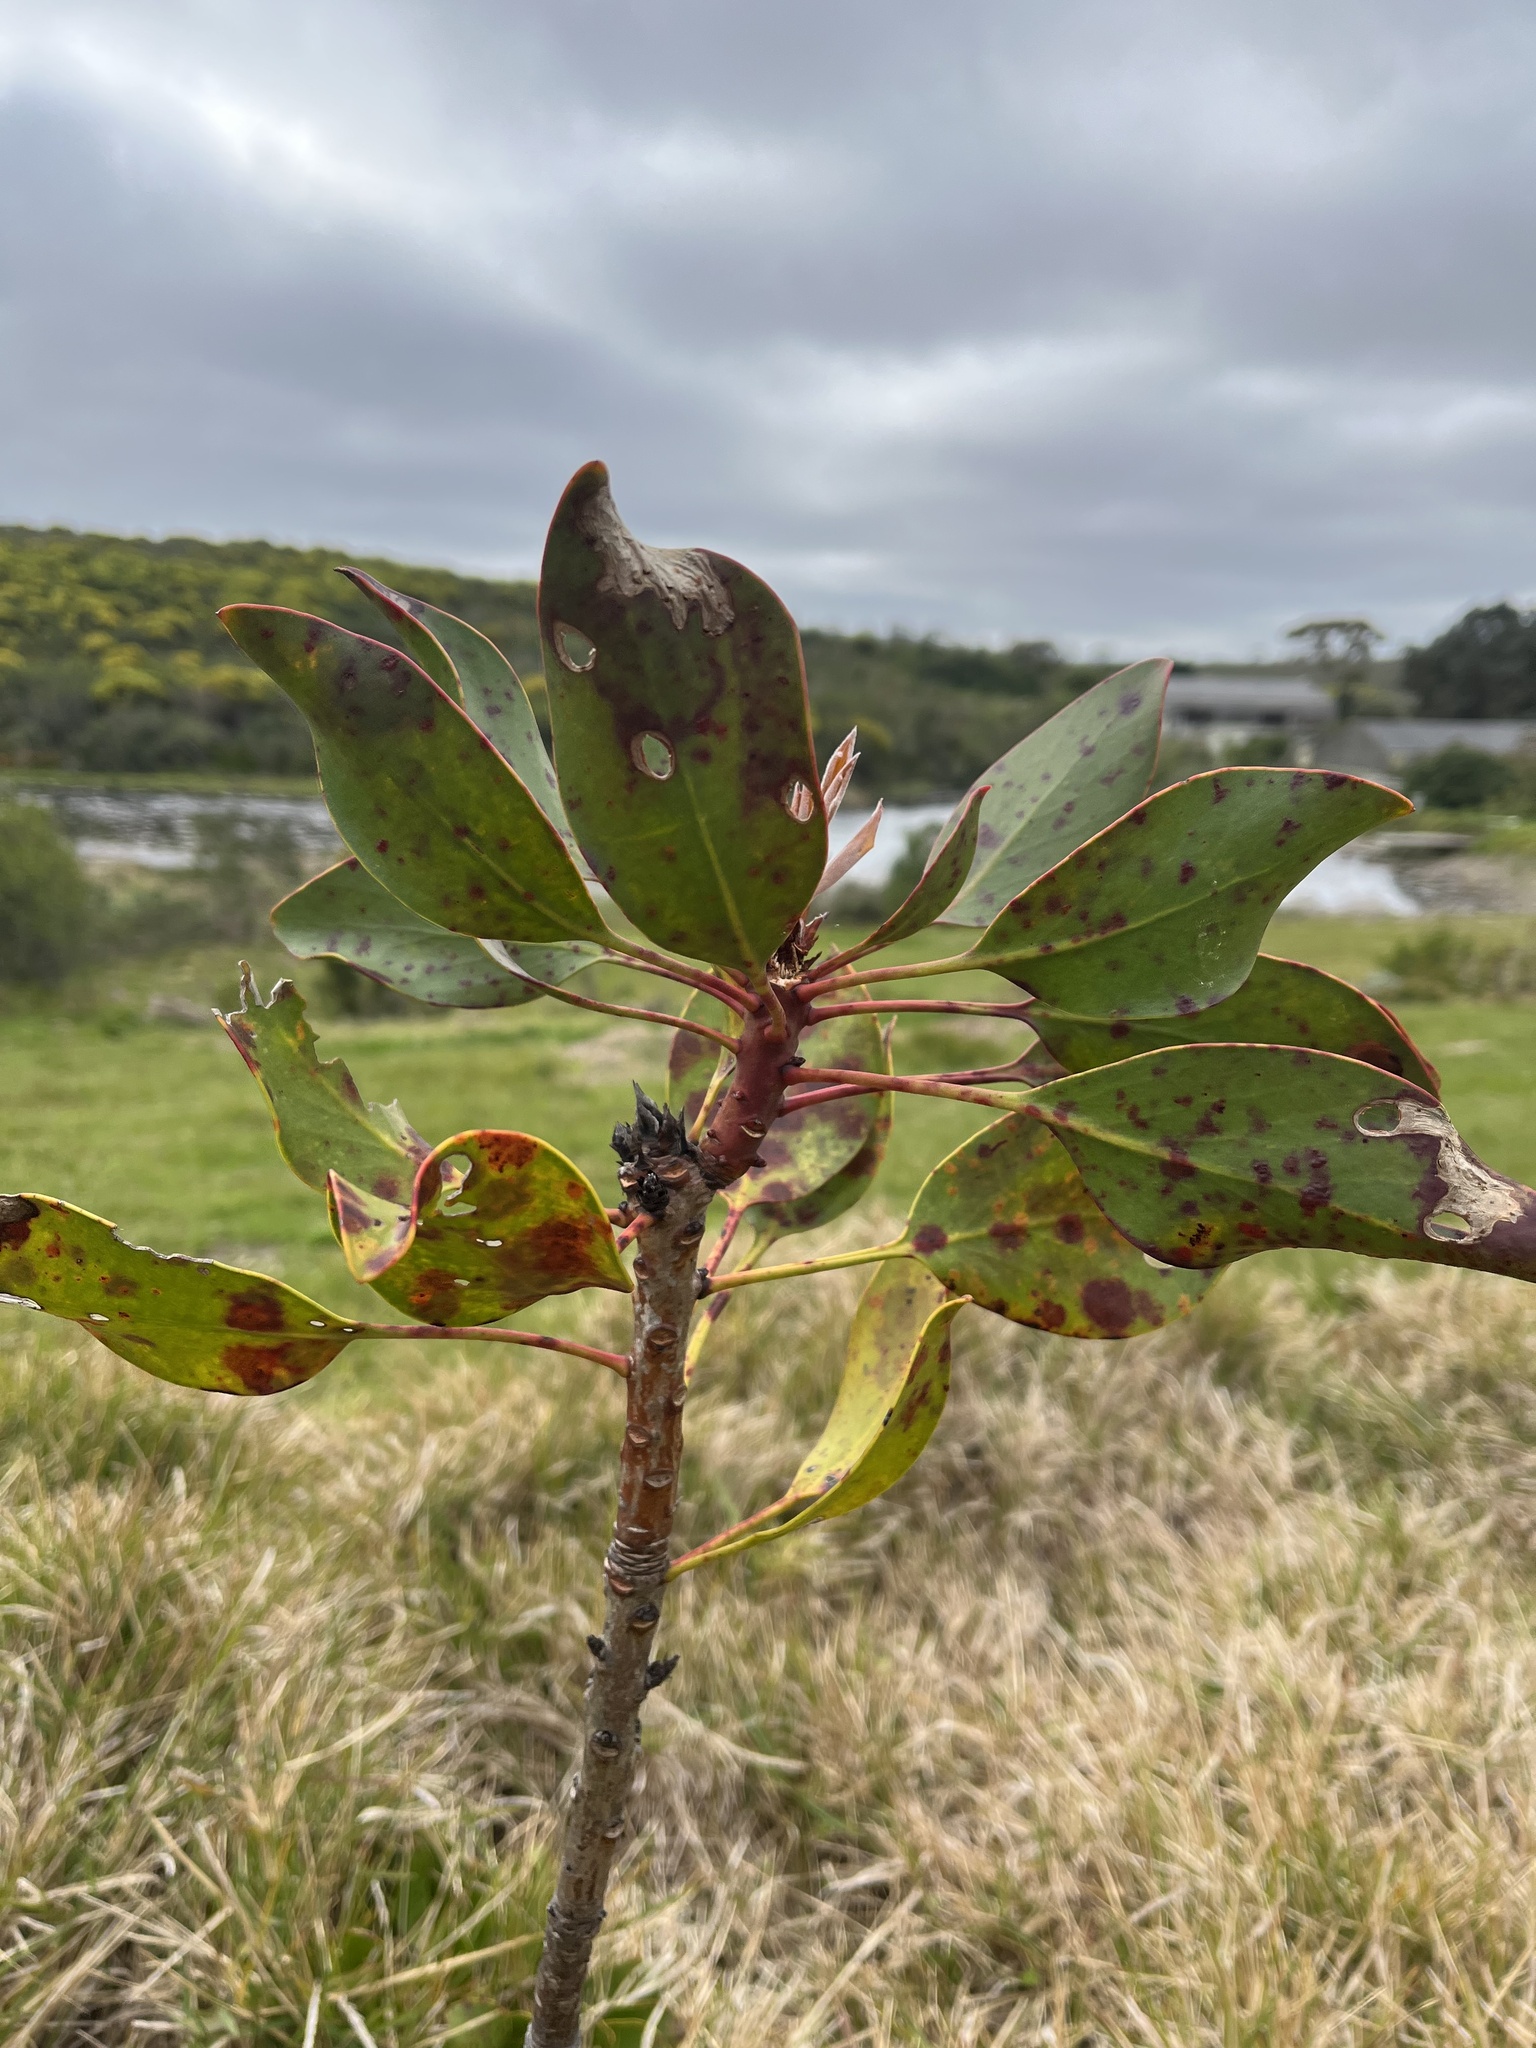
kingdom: Plantae
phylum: Tracheophyta
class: Magnoliopsida
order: Proteales
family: Proteaceae
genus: Protea
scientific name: Protea cynaroides
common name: King protea
